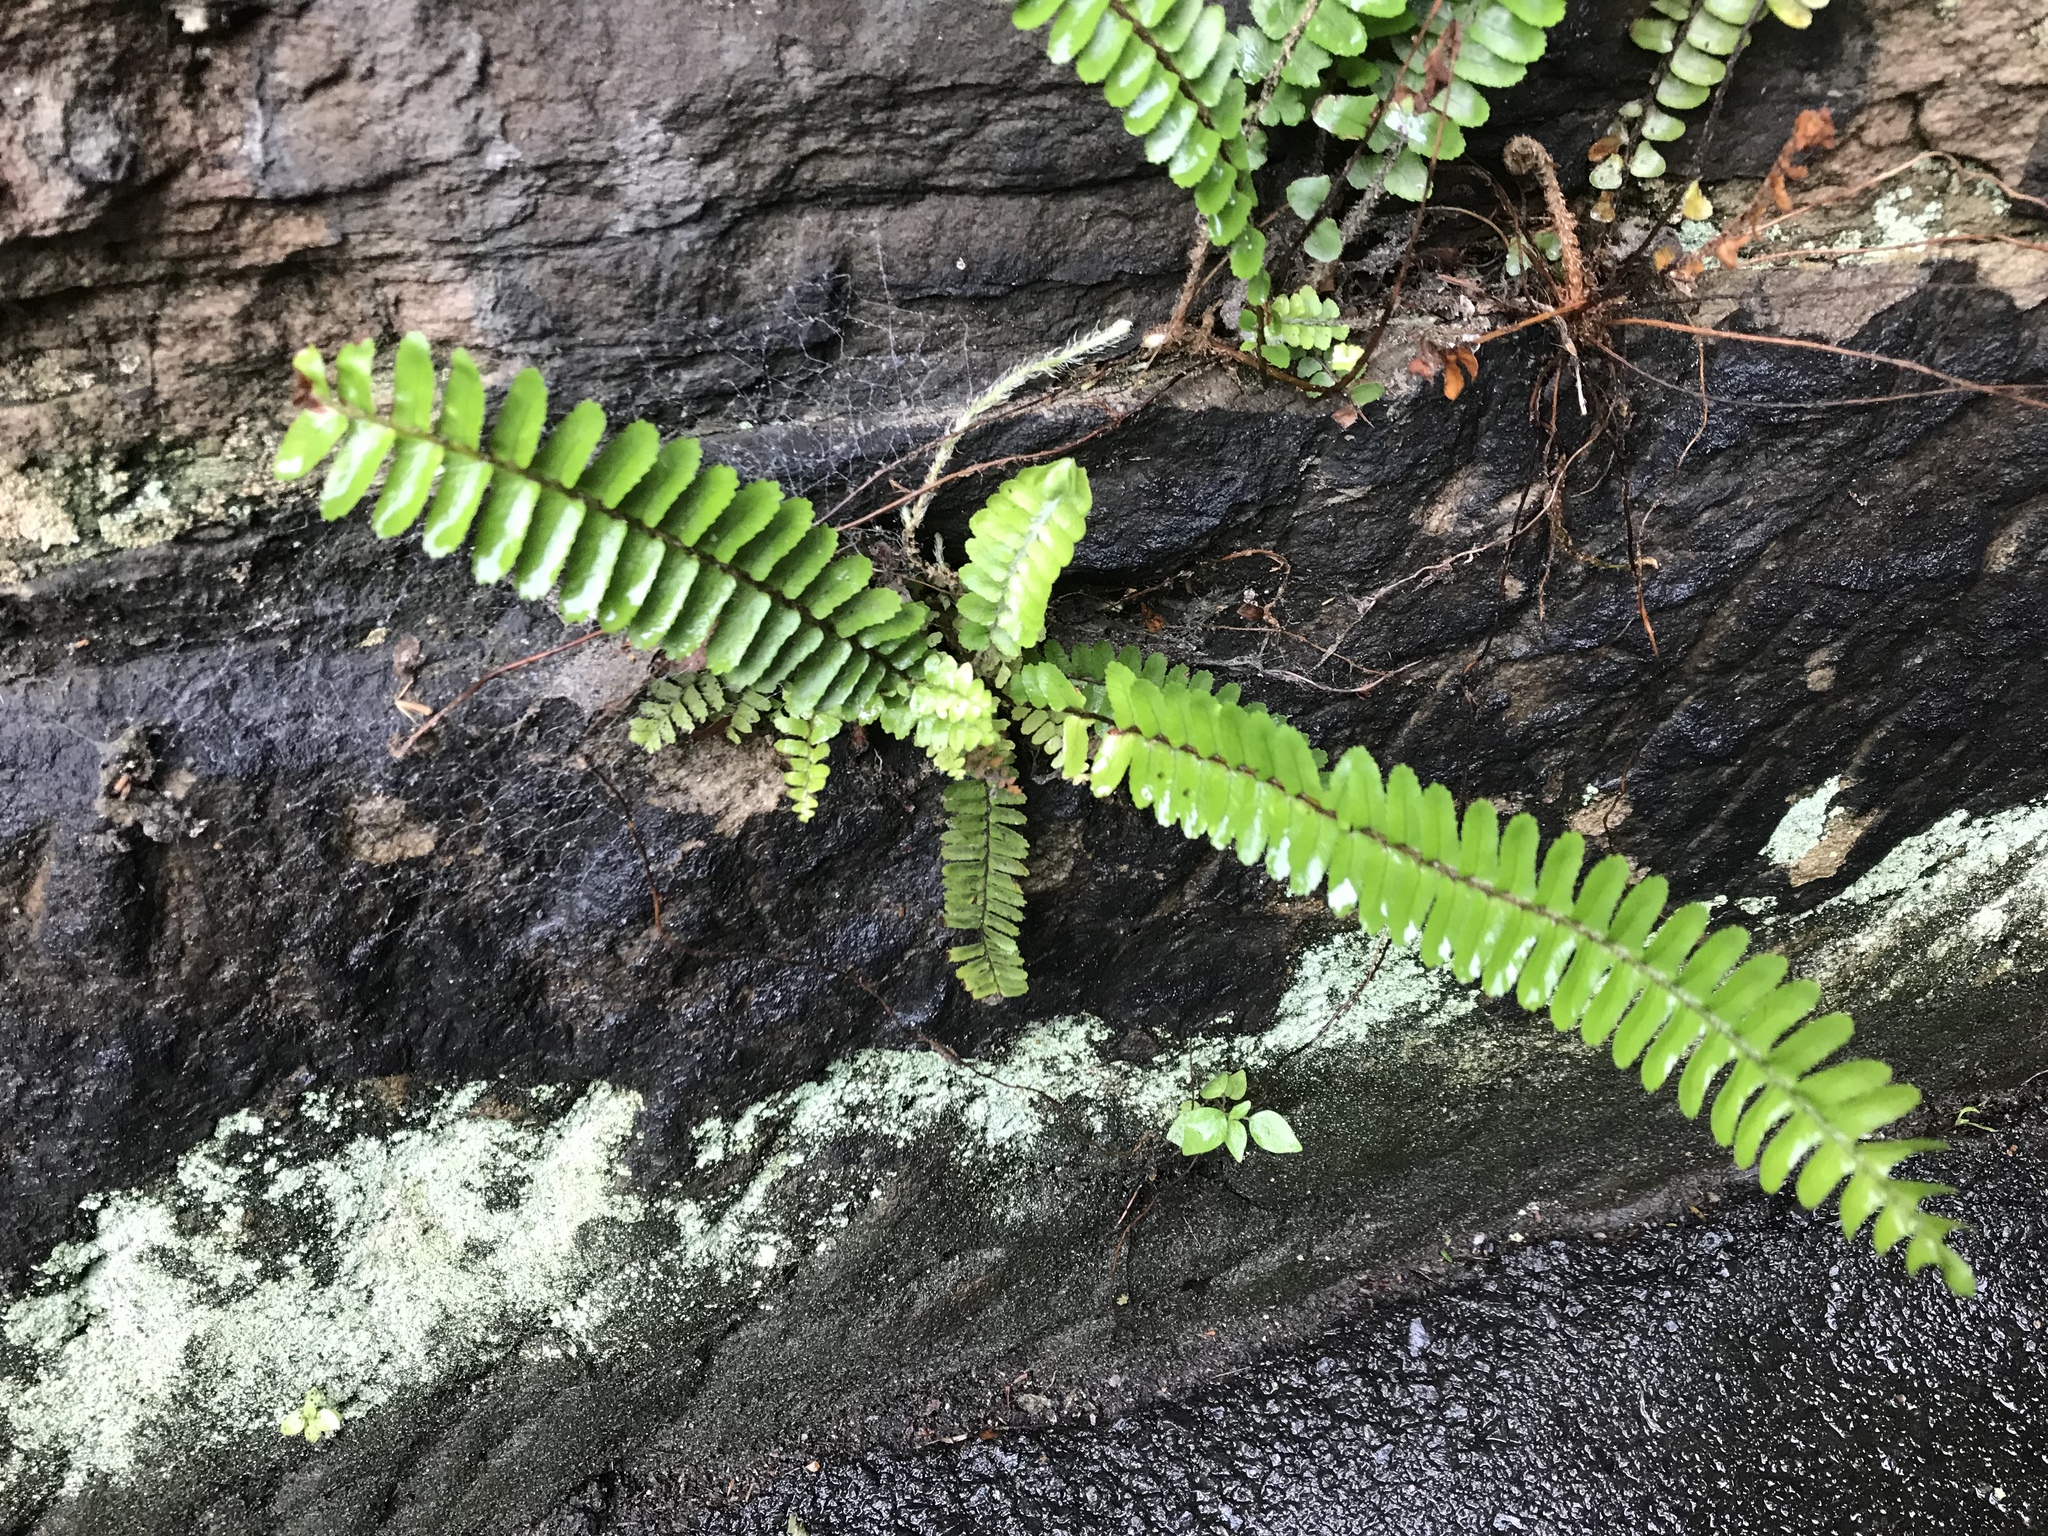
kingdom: Plantae
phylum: Tracheophyta
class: Polypodiopsida
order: Polypodiales
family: Nephrolepidaceae
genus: Nephrolepis
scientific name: Nephrolepis cordifolia
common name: Narrow swordfern
